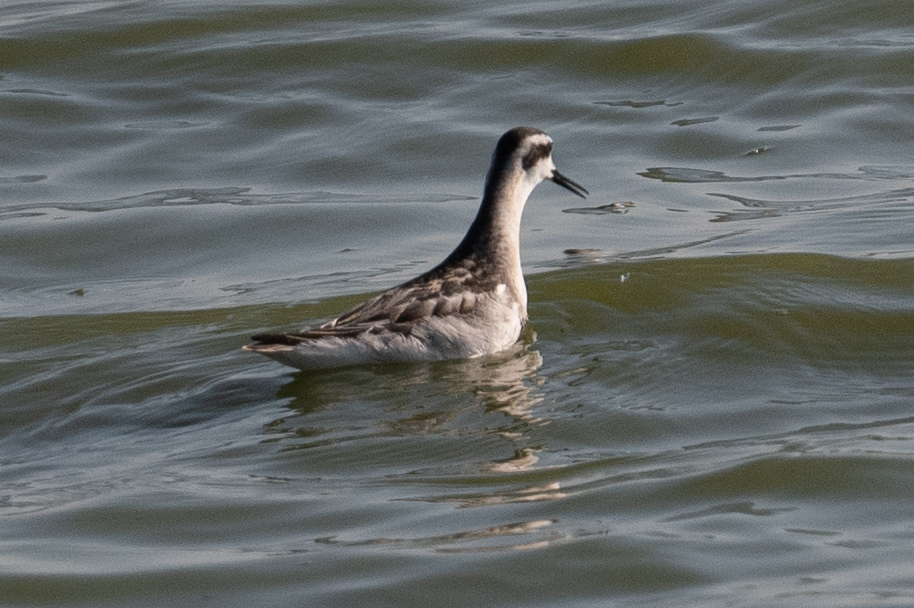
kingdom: Animalia
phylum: Chordata
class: Aves
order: Charadriiformes
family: Scolopacidae
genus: Phalaropus
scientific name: Phalaropus lobatus
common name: Red-necked phalarope
